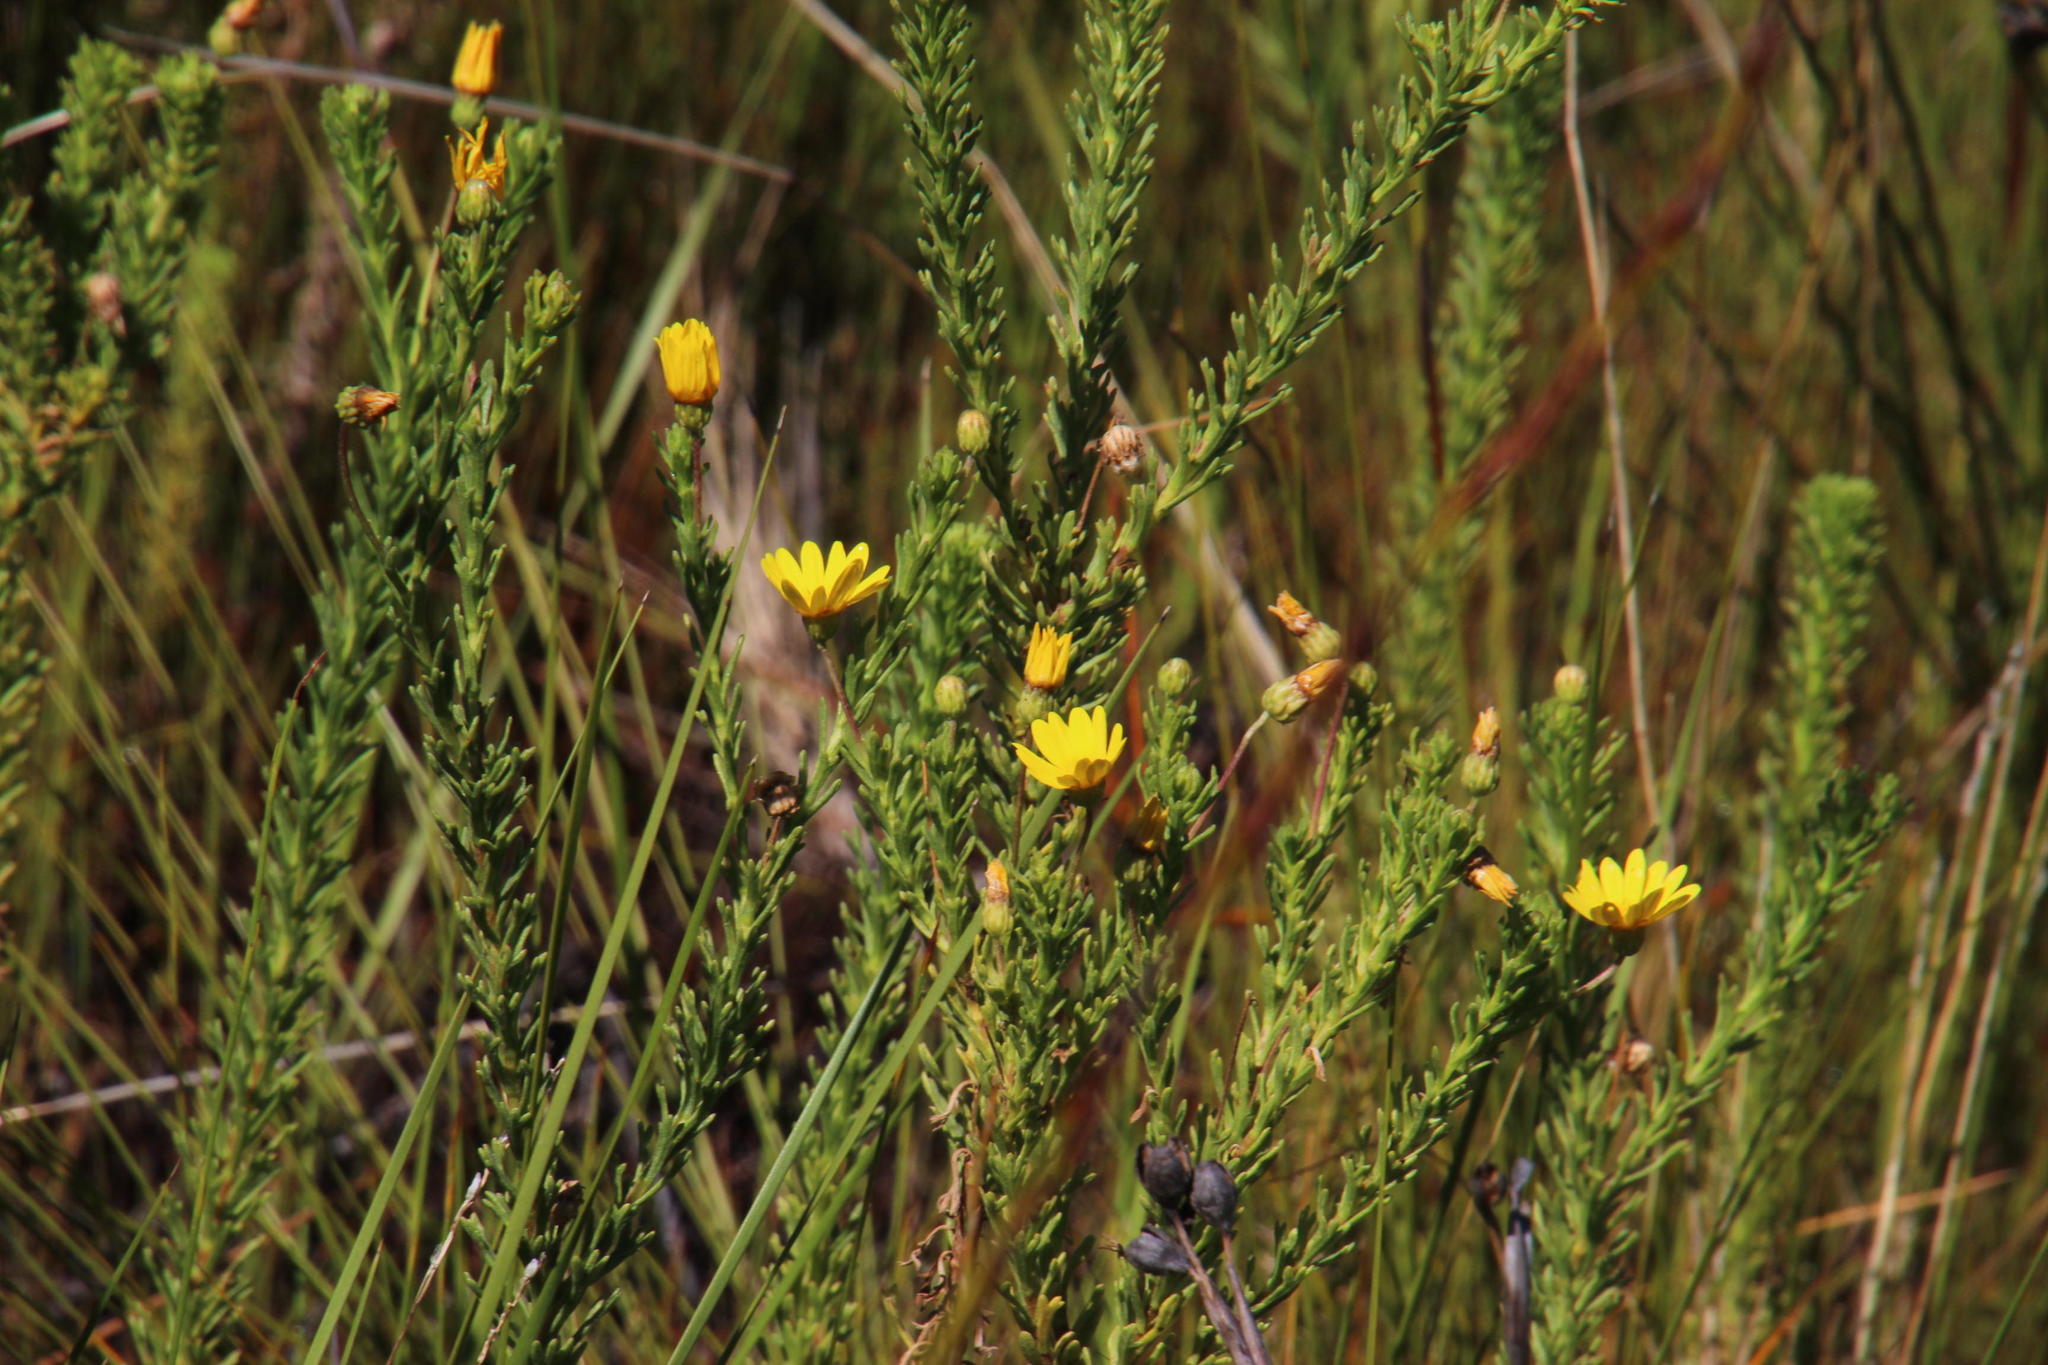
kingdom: Plantae
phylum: Tracheophyta
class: Magnoliopsida
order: Asterales
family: Asteraceae
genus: Ursinia
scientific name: Ursinia trifida
